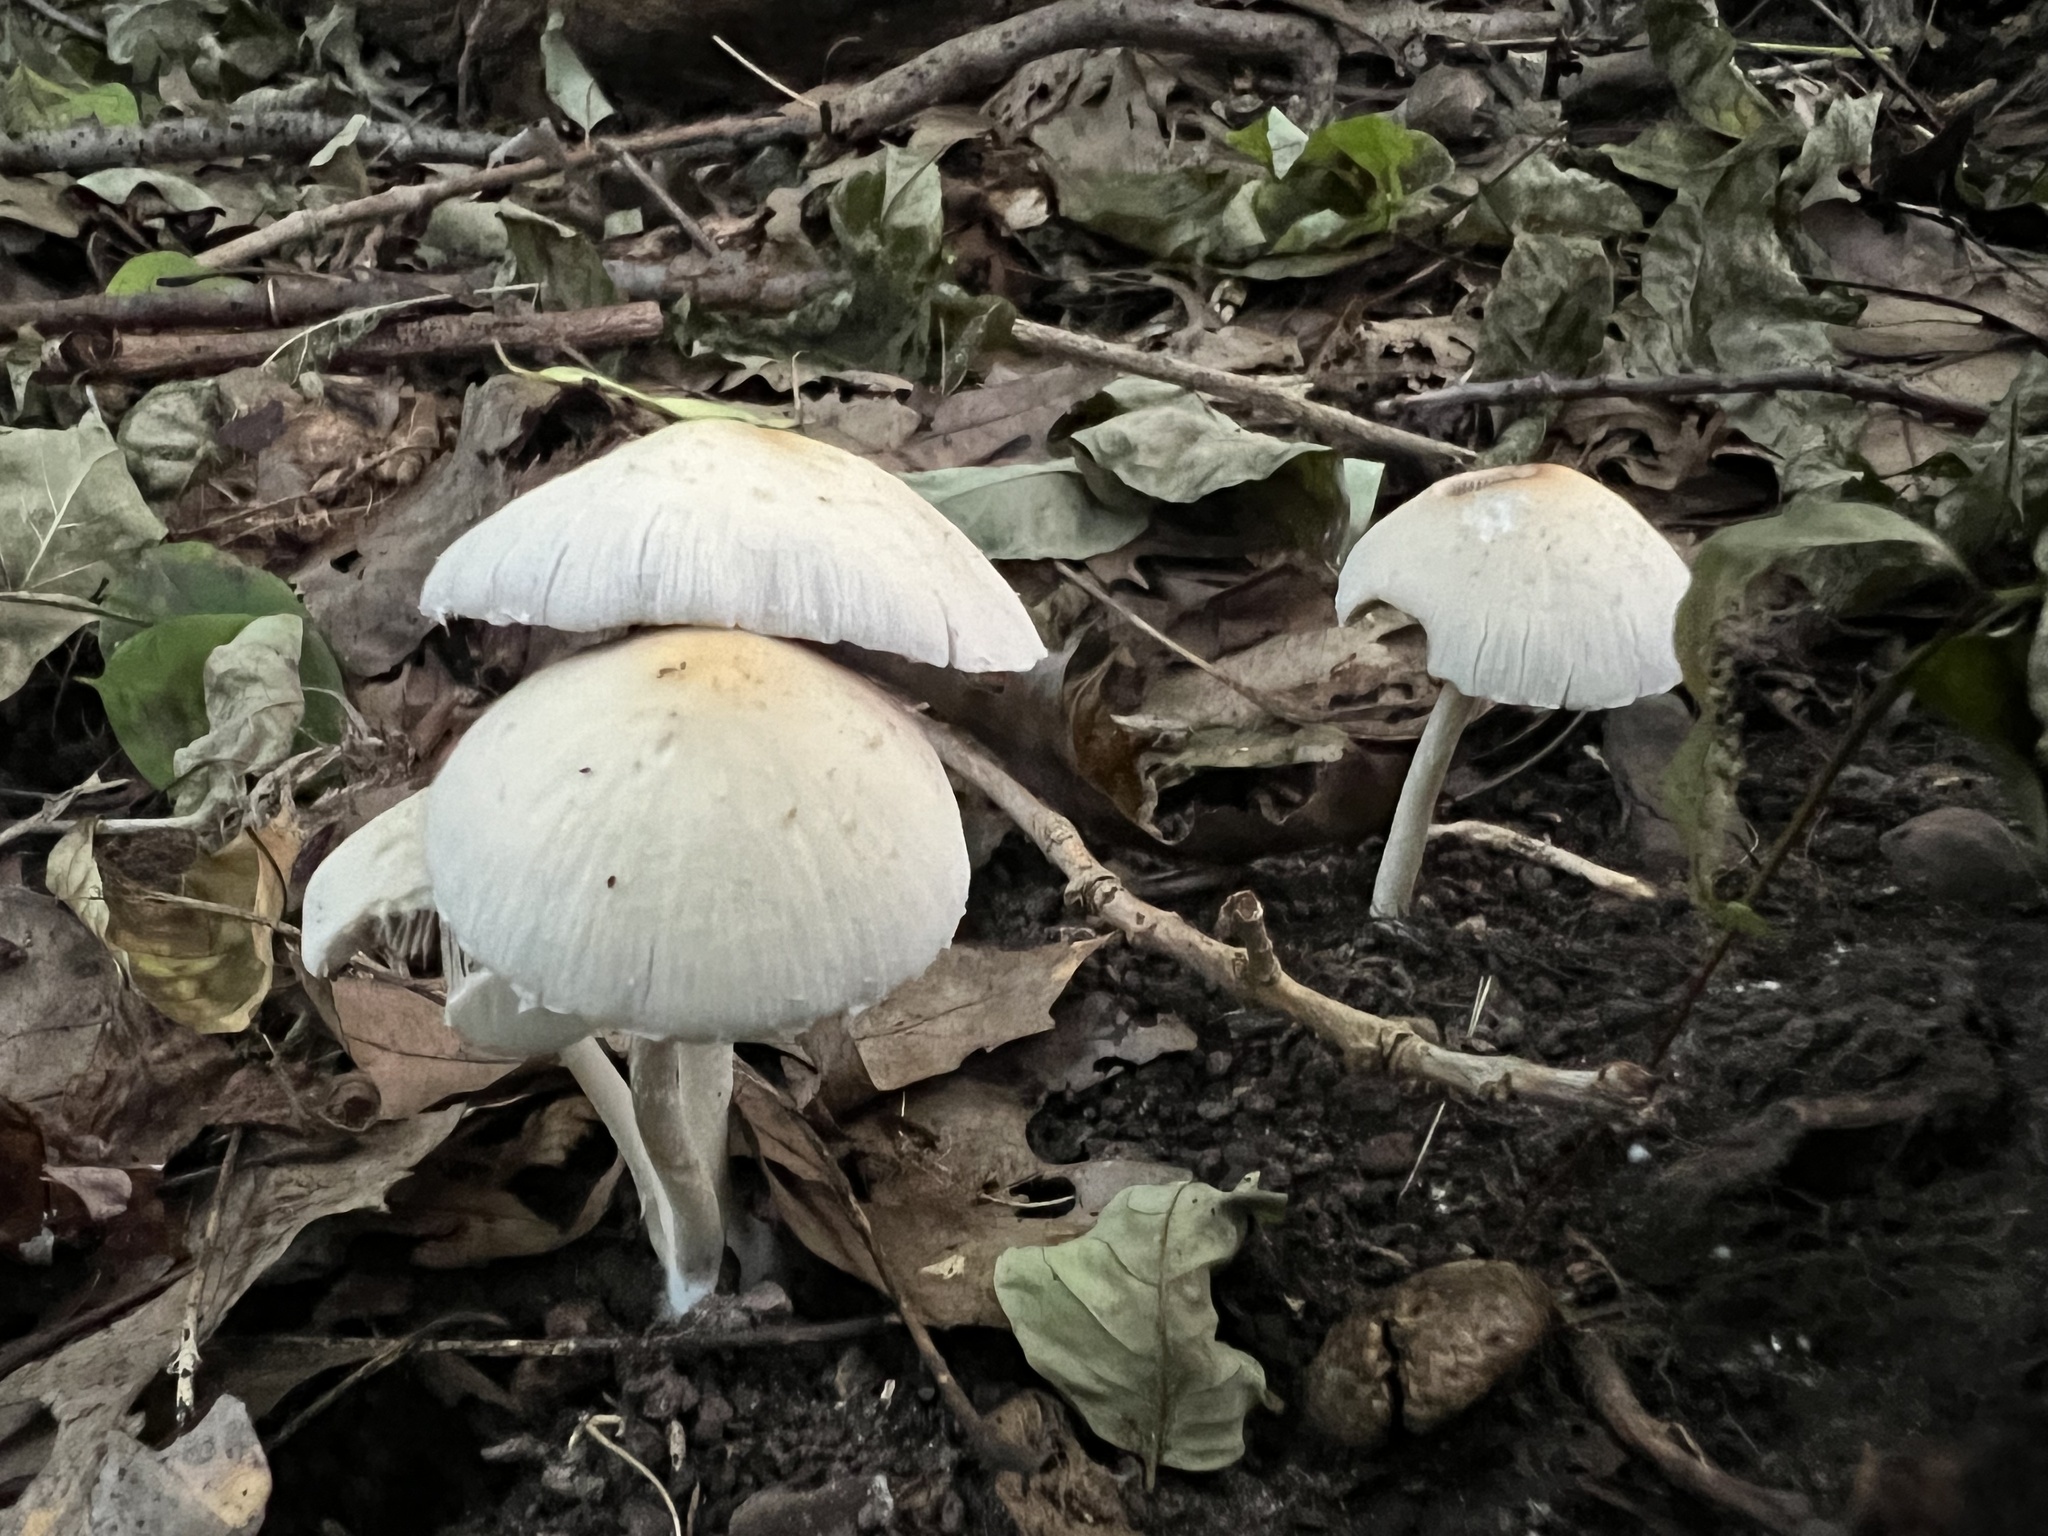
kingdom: Fungi
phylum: Basidiomycota
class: Agaricomycetes
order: Agaricales
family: Psathyrellaceae
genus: Candolleomyces
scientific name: Candolleomyces candolleanus
